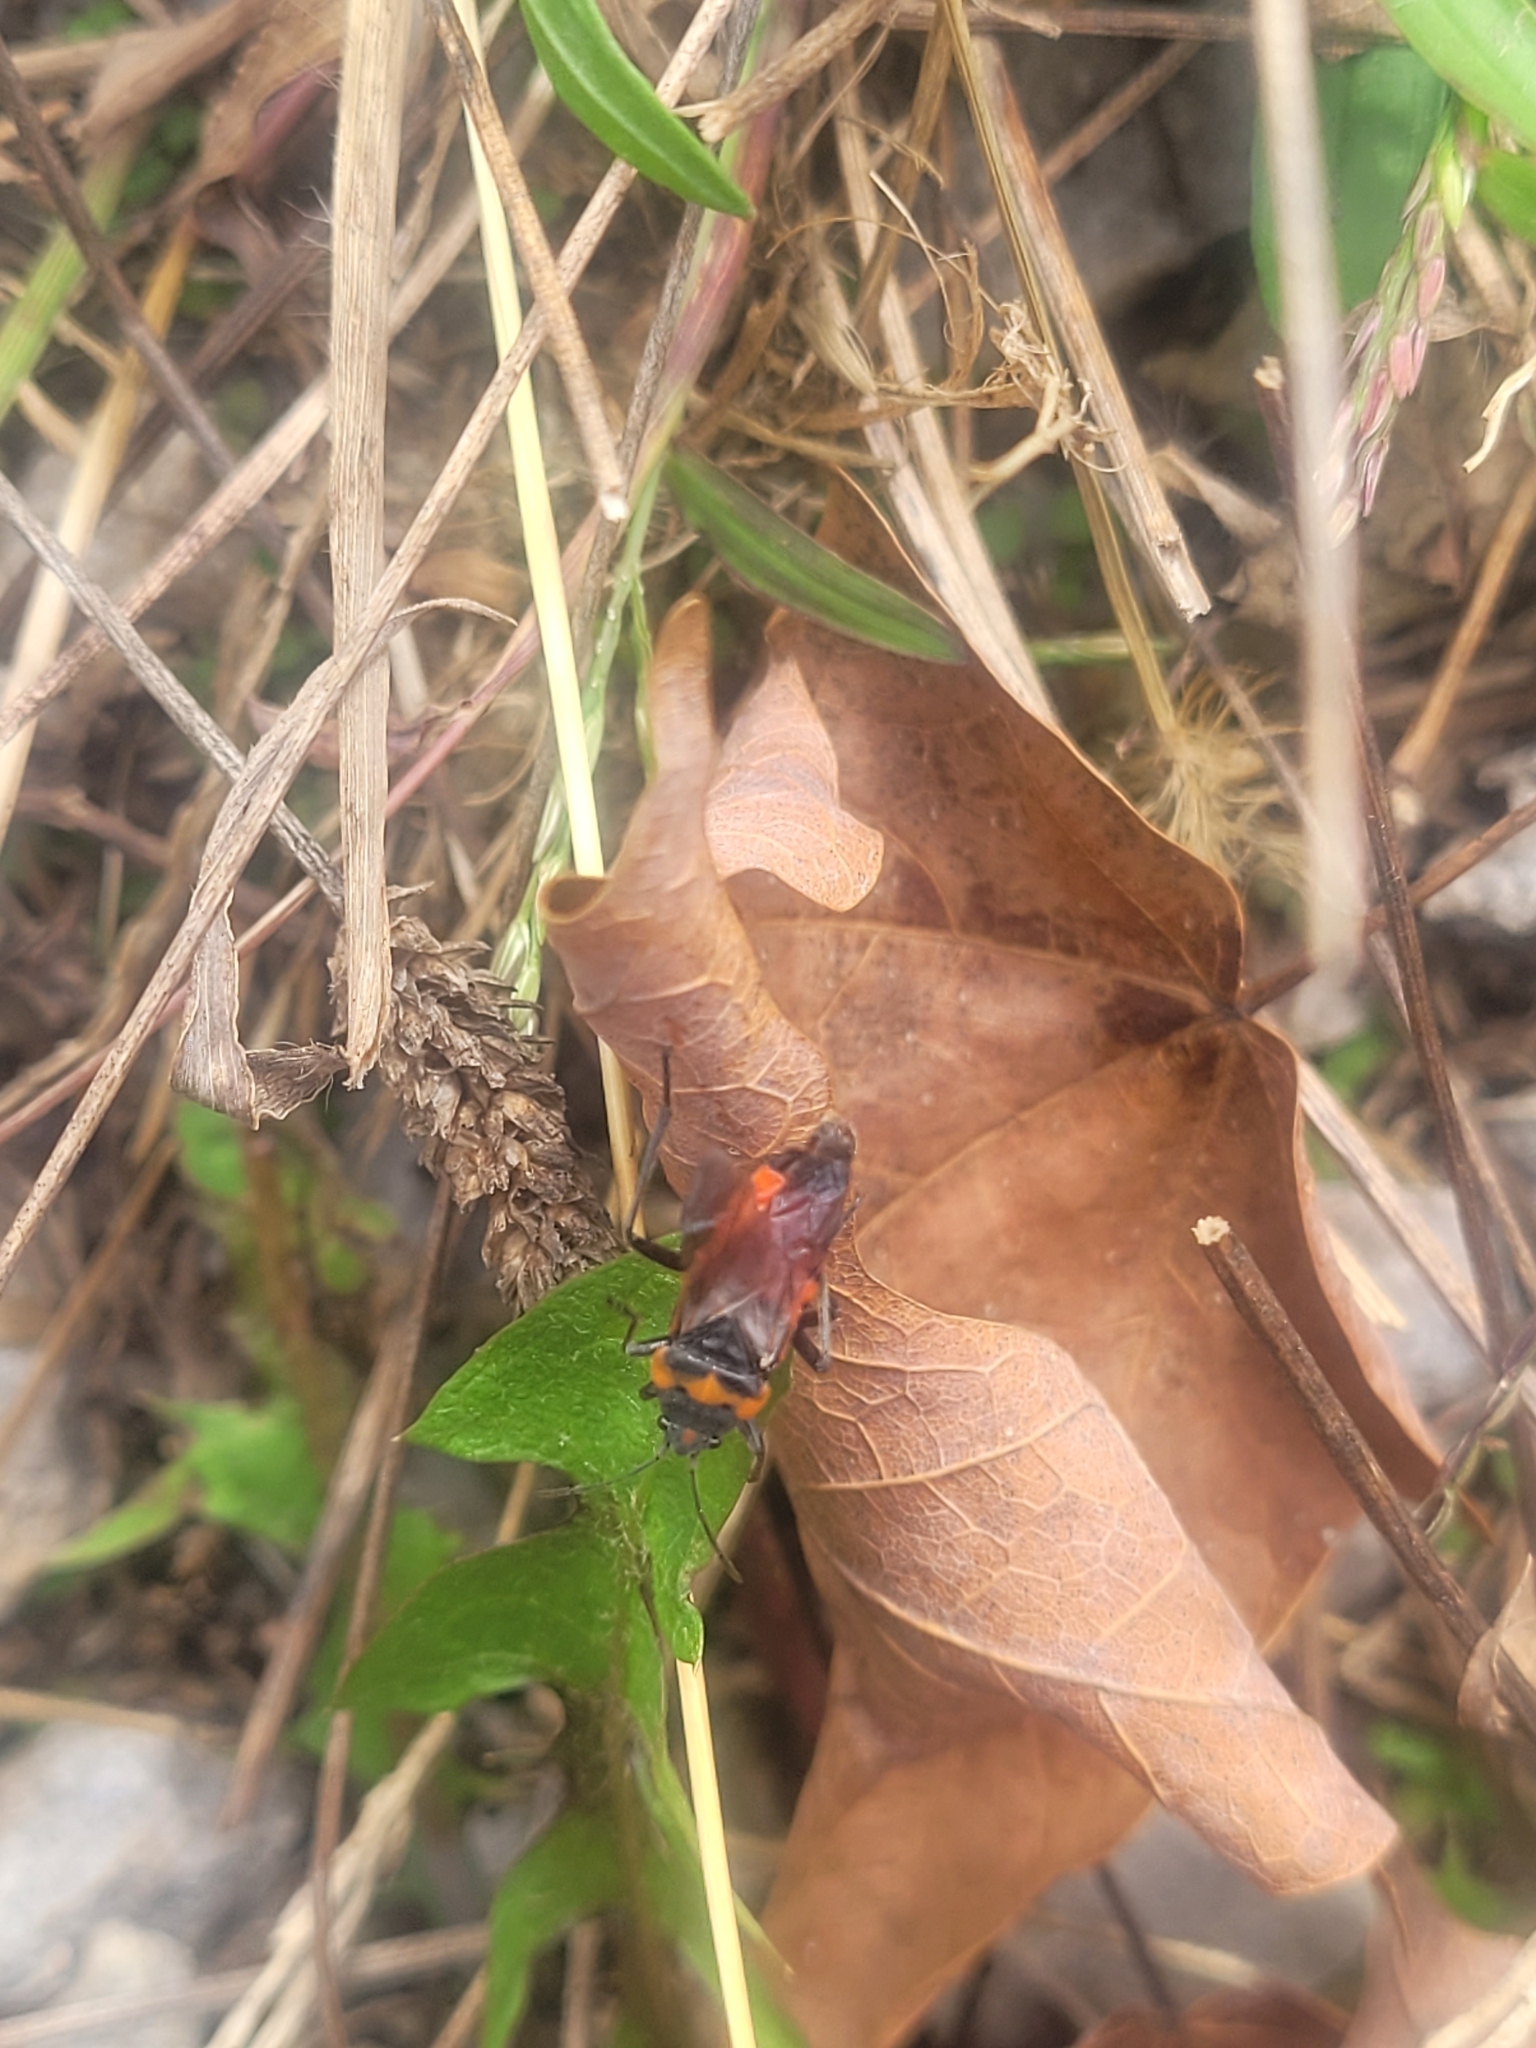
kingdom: Animalia
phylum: Arthropoda
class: Insecta
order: Hemiptera
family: Lygaeidae
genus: Lygaeus
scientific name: Lygaeus kalmii
